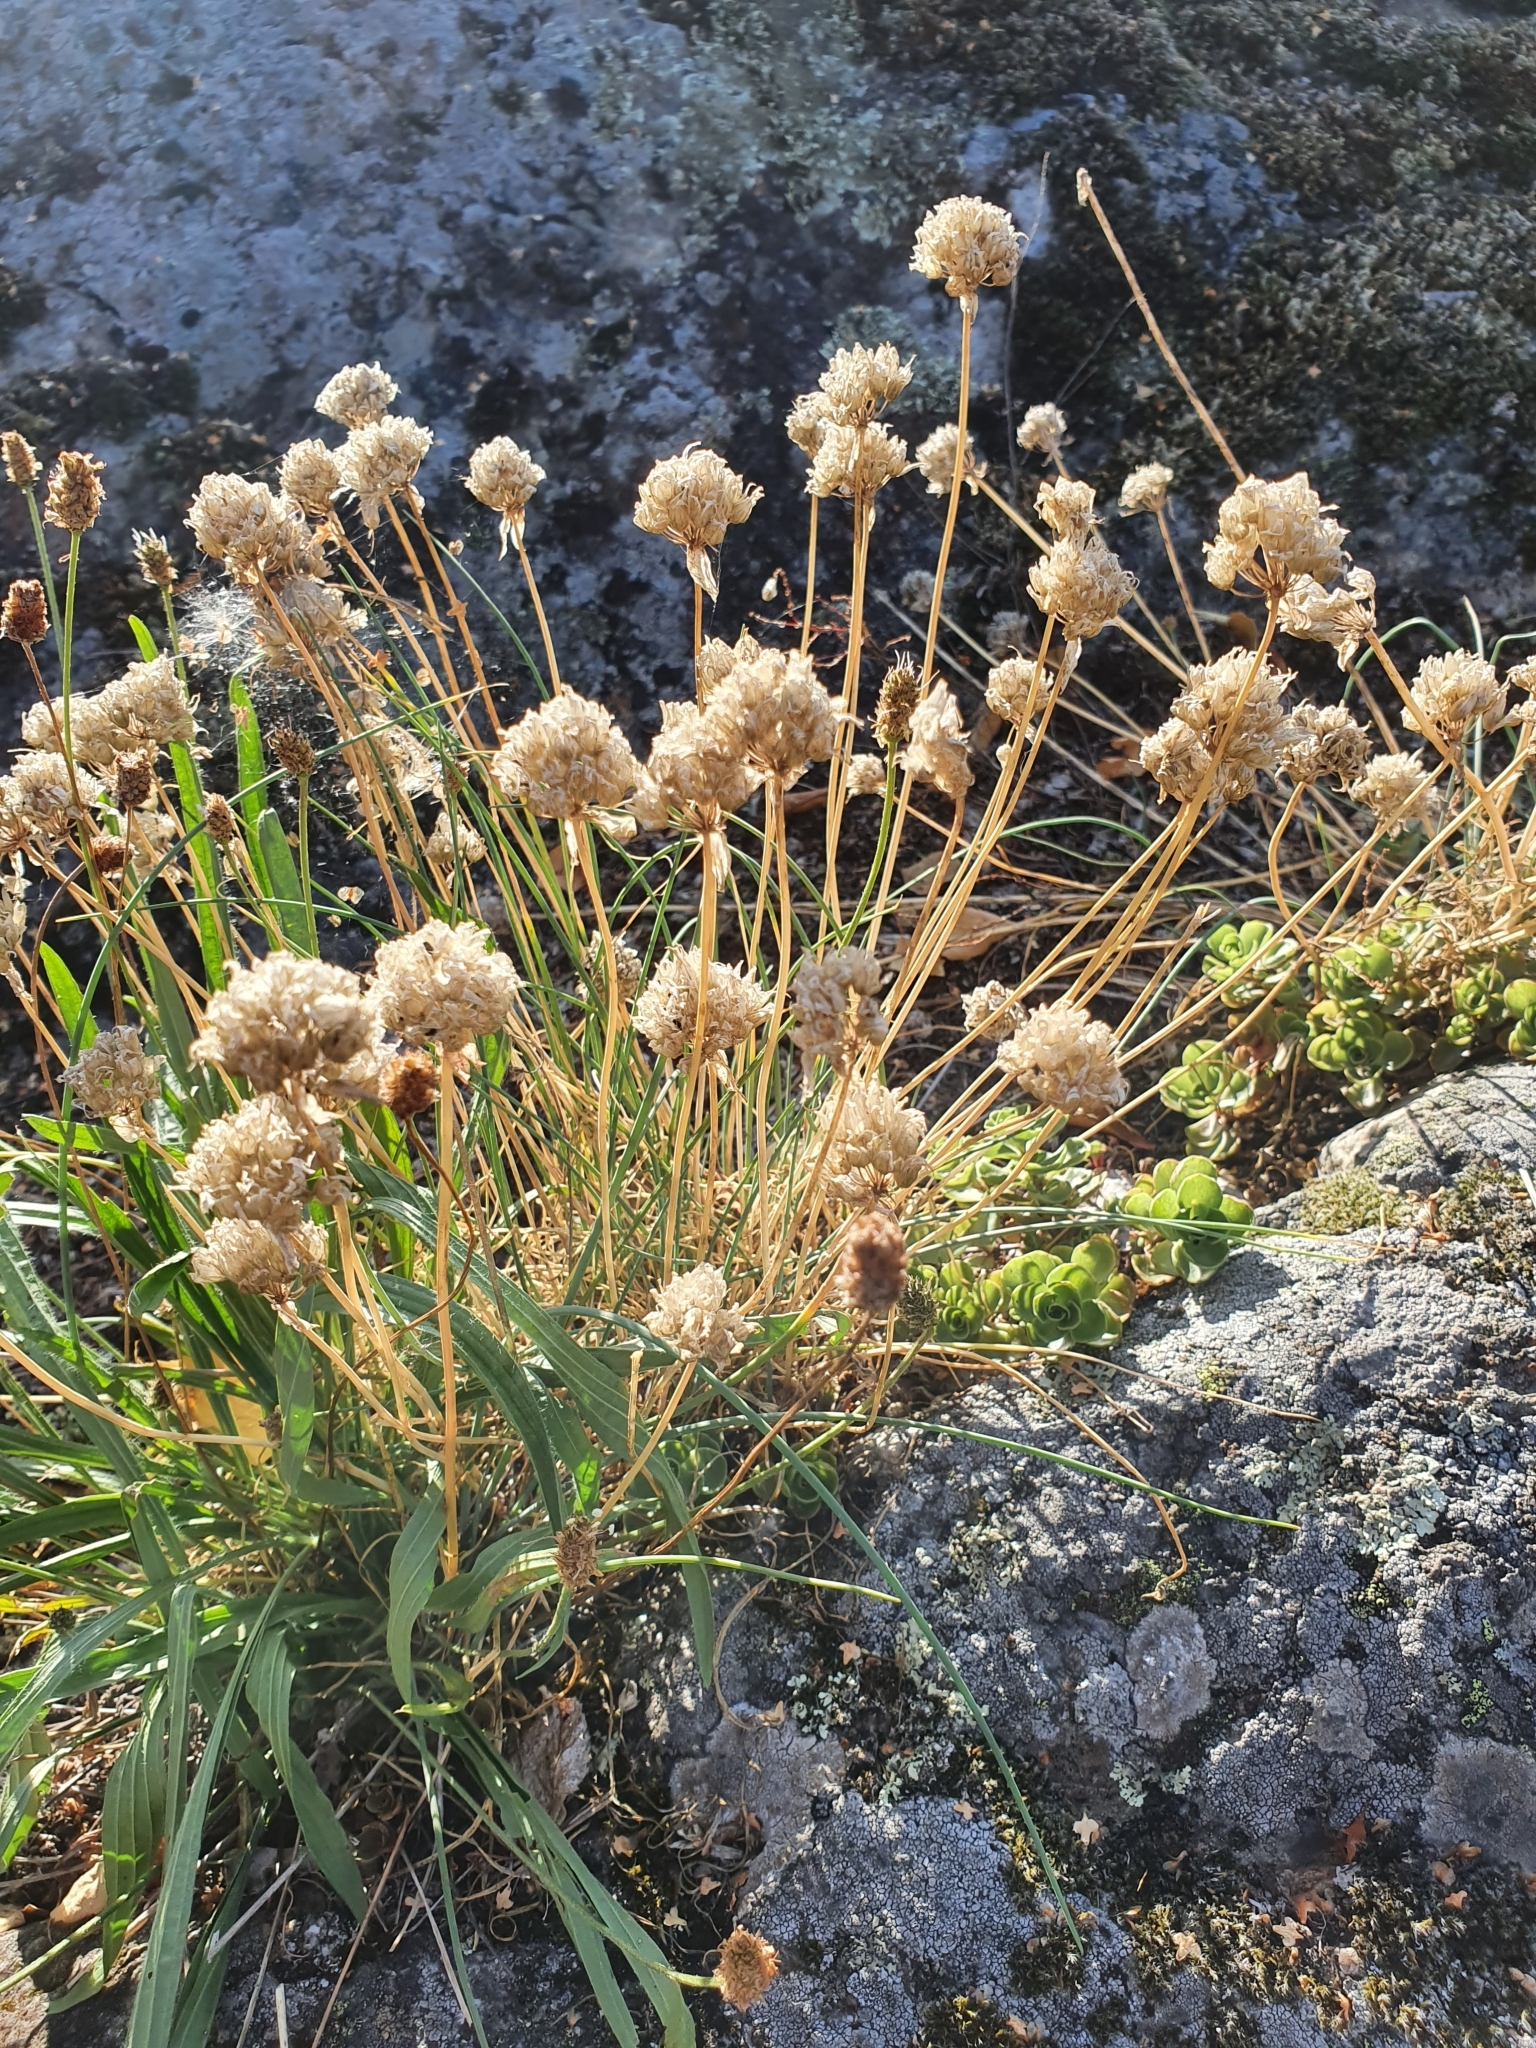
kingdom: Plantae
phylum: Tracheophyta
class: Liliopsida
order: Asparagales
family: Amaryllidaceae
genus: Allium
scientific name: Allium schoenoprasum
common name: Chives
